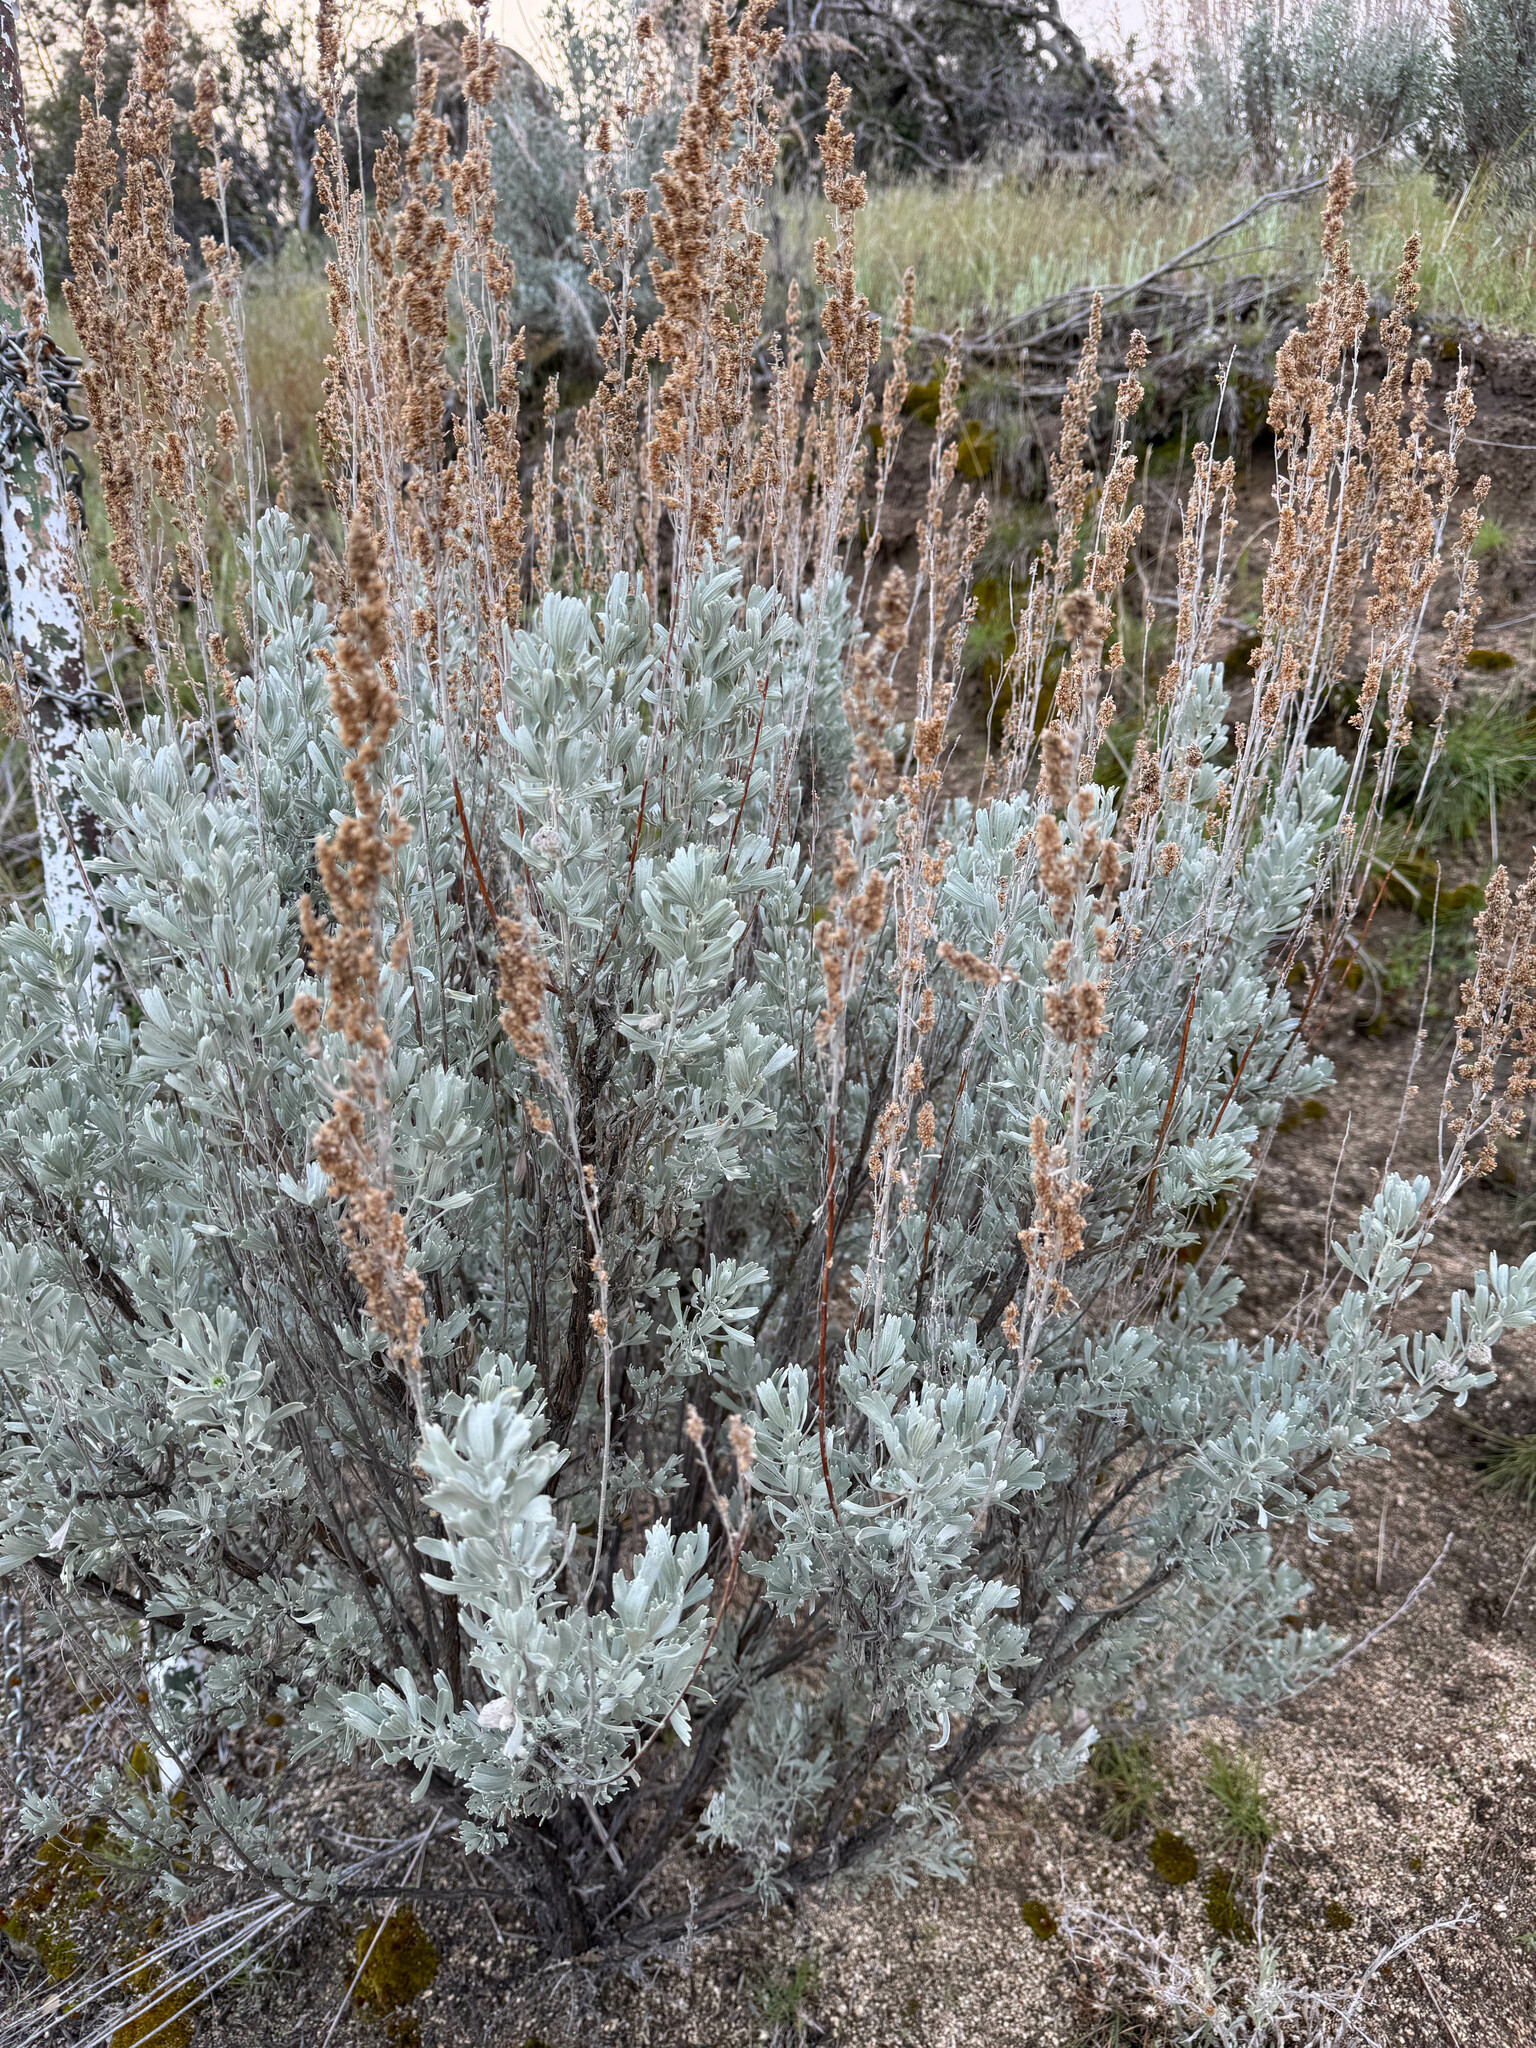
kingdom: Plantae
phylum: Tracheophyta
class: Magnoliopsida
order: Asterales
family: Asteraceae
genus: Artemisia
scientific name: Artemisia tridentata
